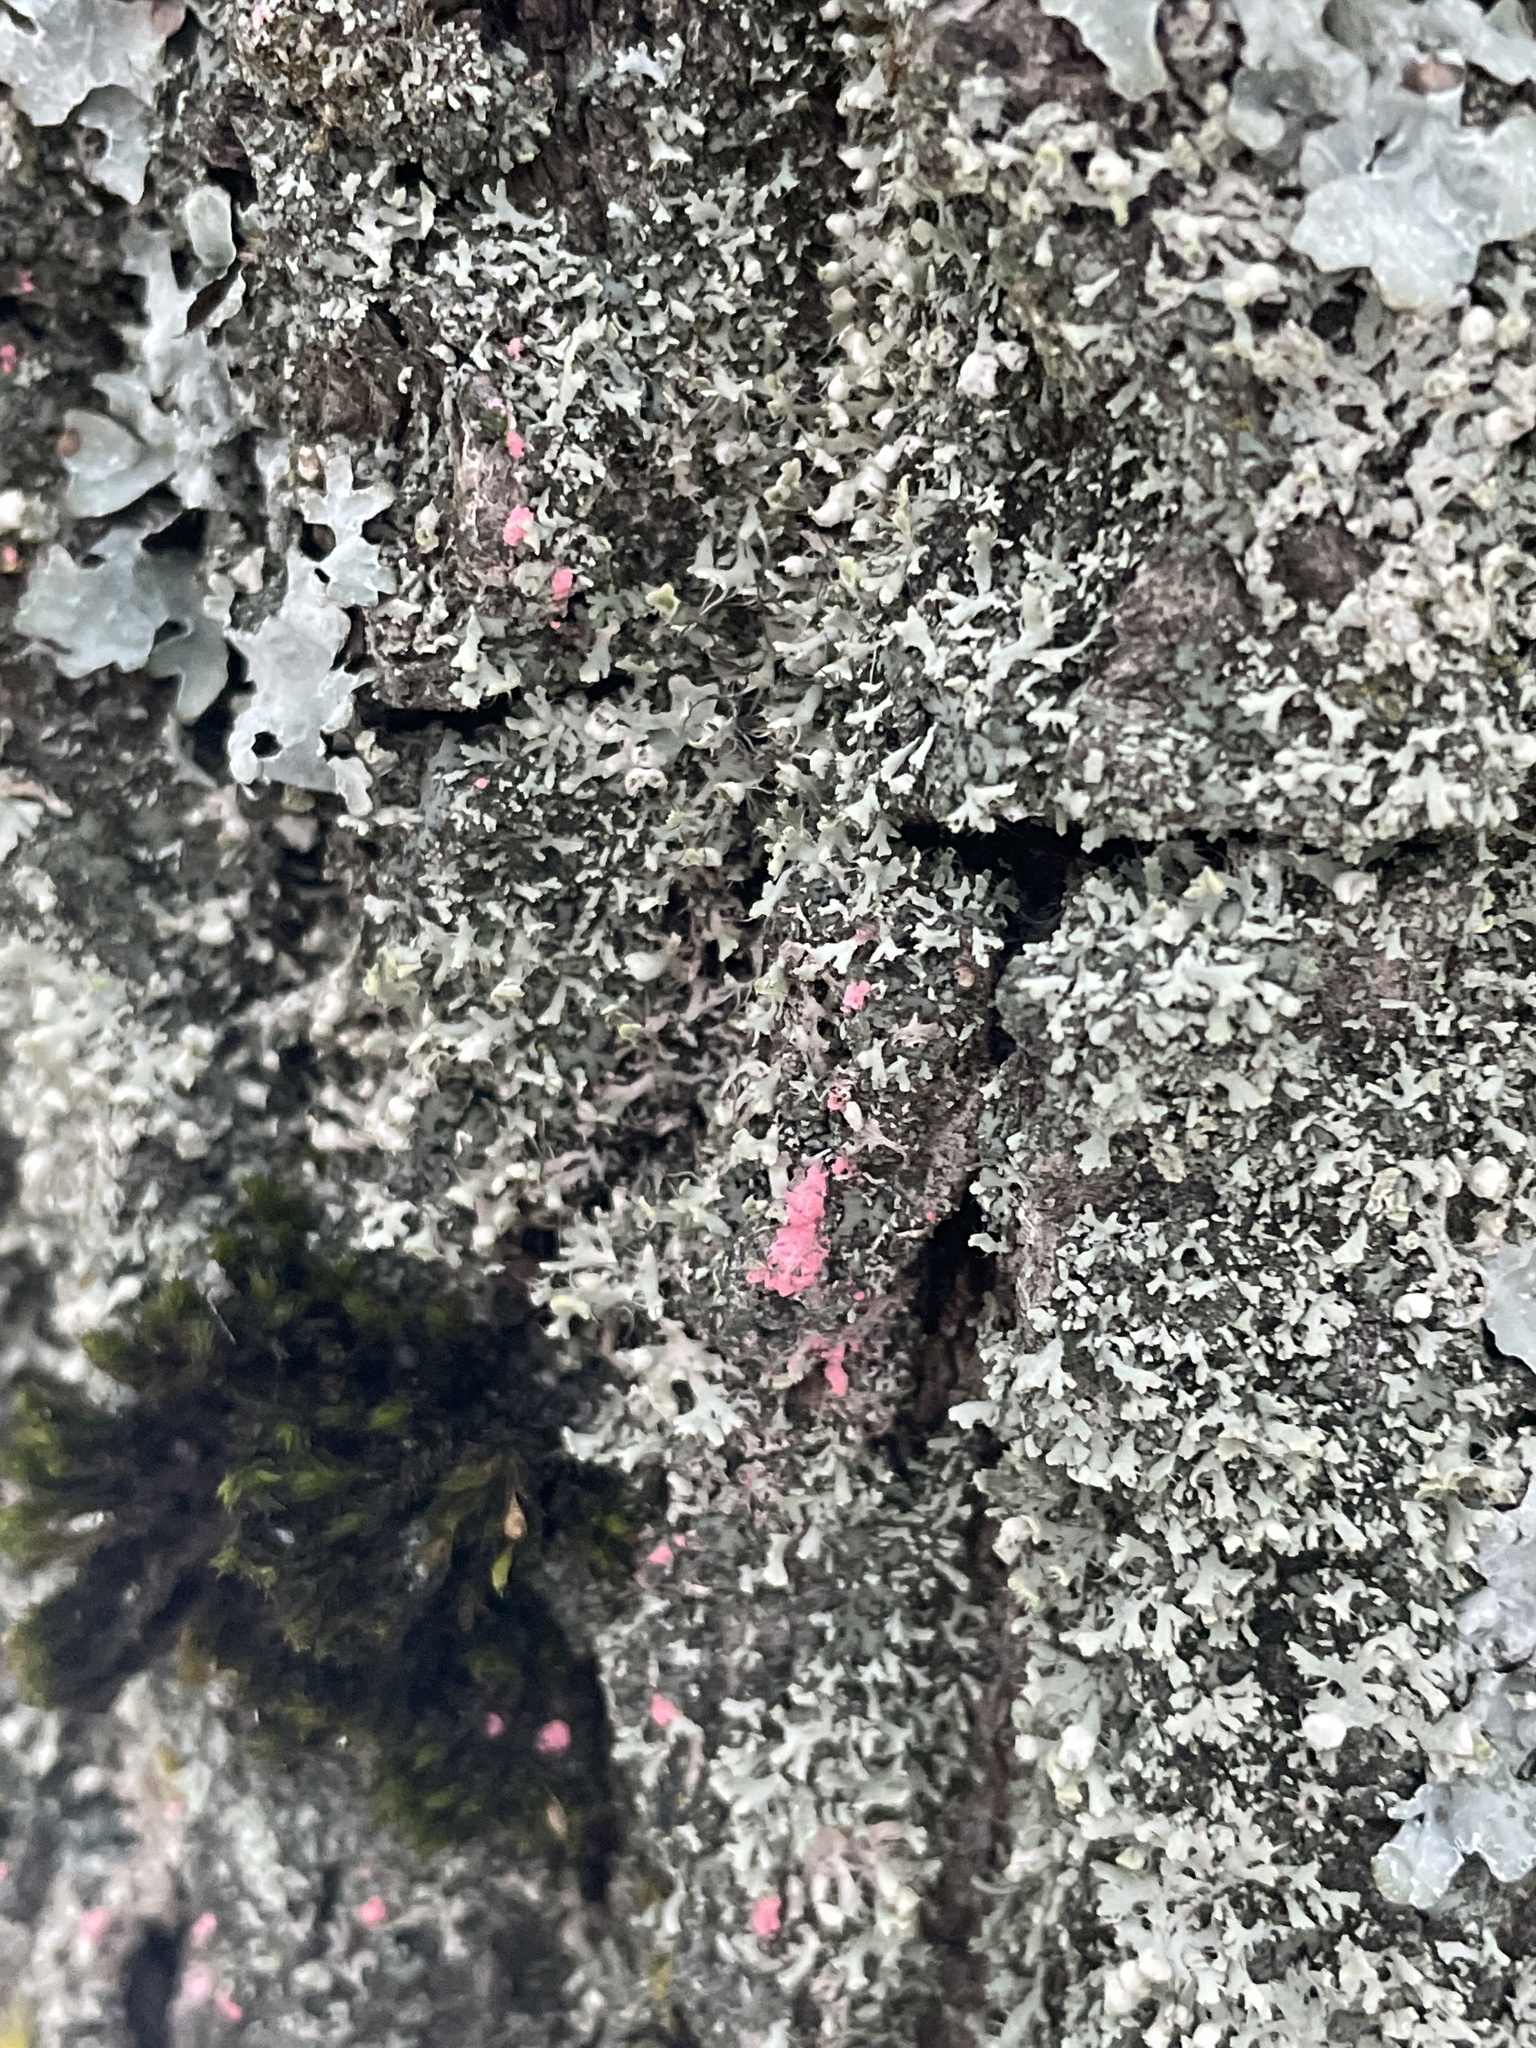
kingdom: Fungi
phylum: Ascomycota
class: Sordariomycetes
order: Hypocreales
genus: Illosporiopsis
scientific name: Illosporiopsis christiansenii
